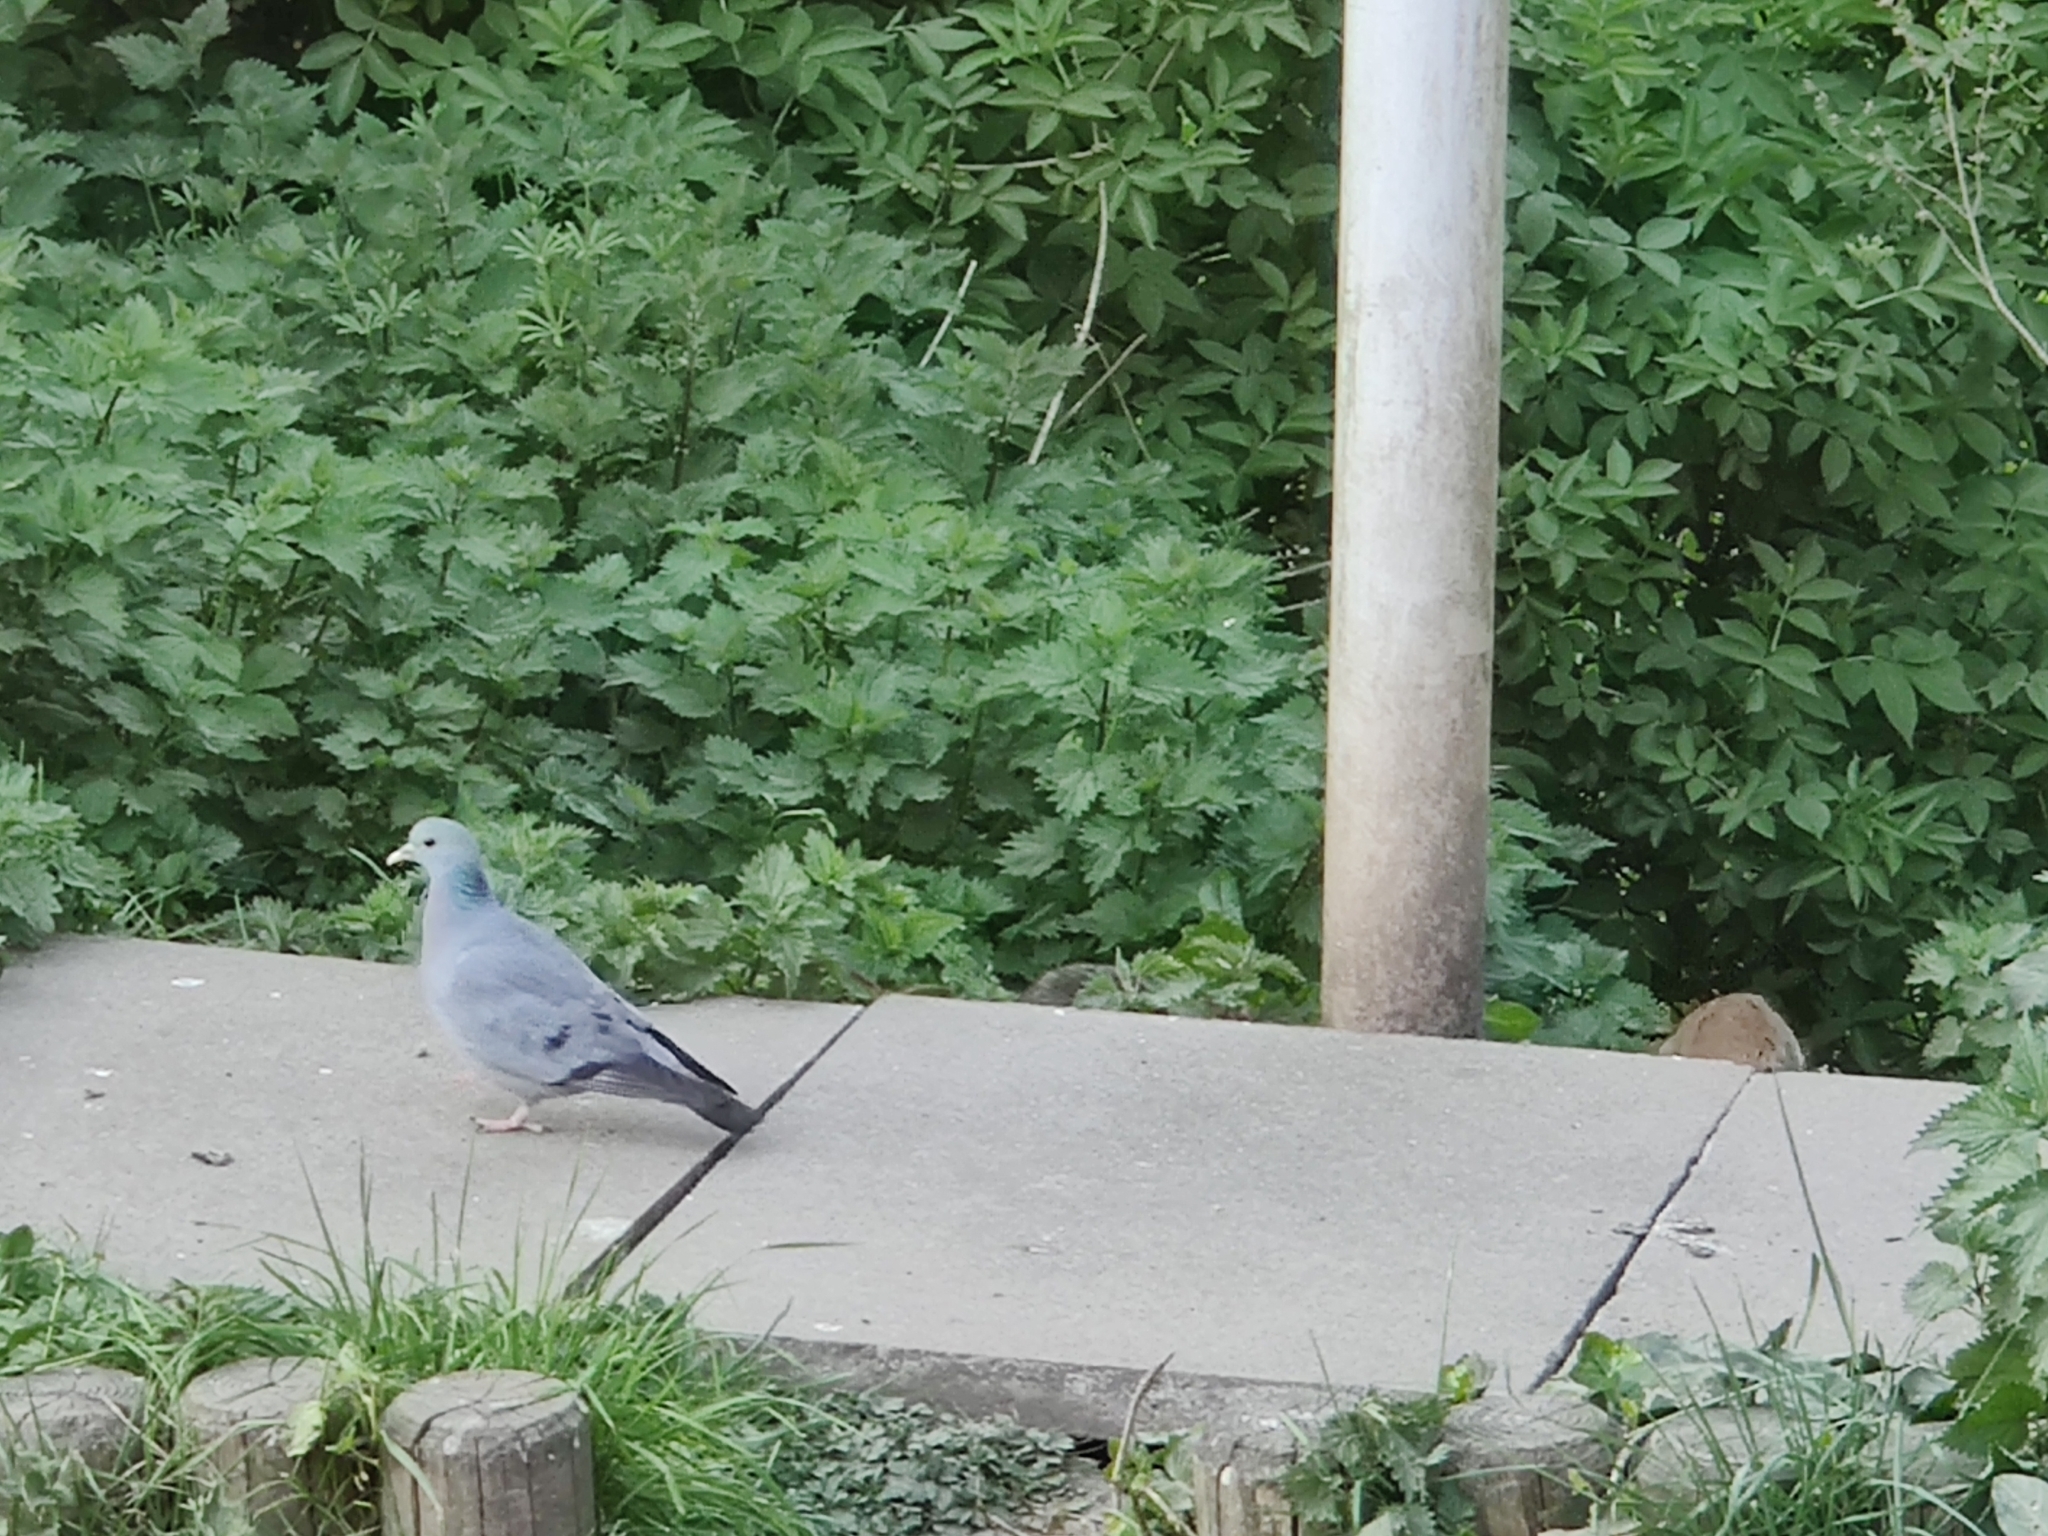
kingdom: Animalia
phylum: Chordata
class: Aves
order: Columbiformes
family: Columbidae
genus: Columba
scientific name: Columba oenas
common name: Stock dove
